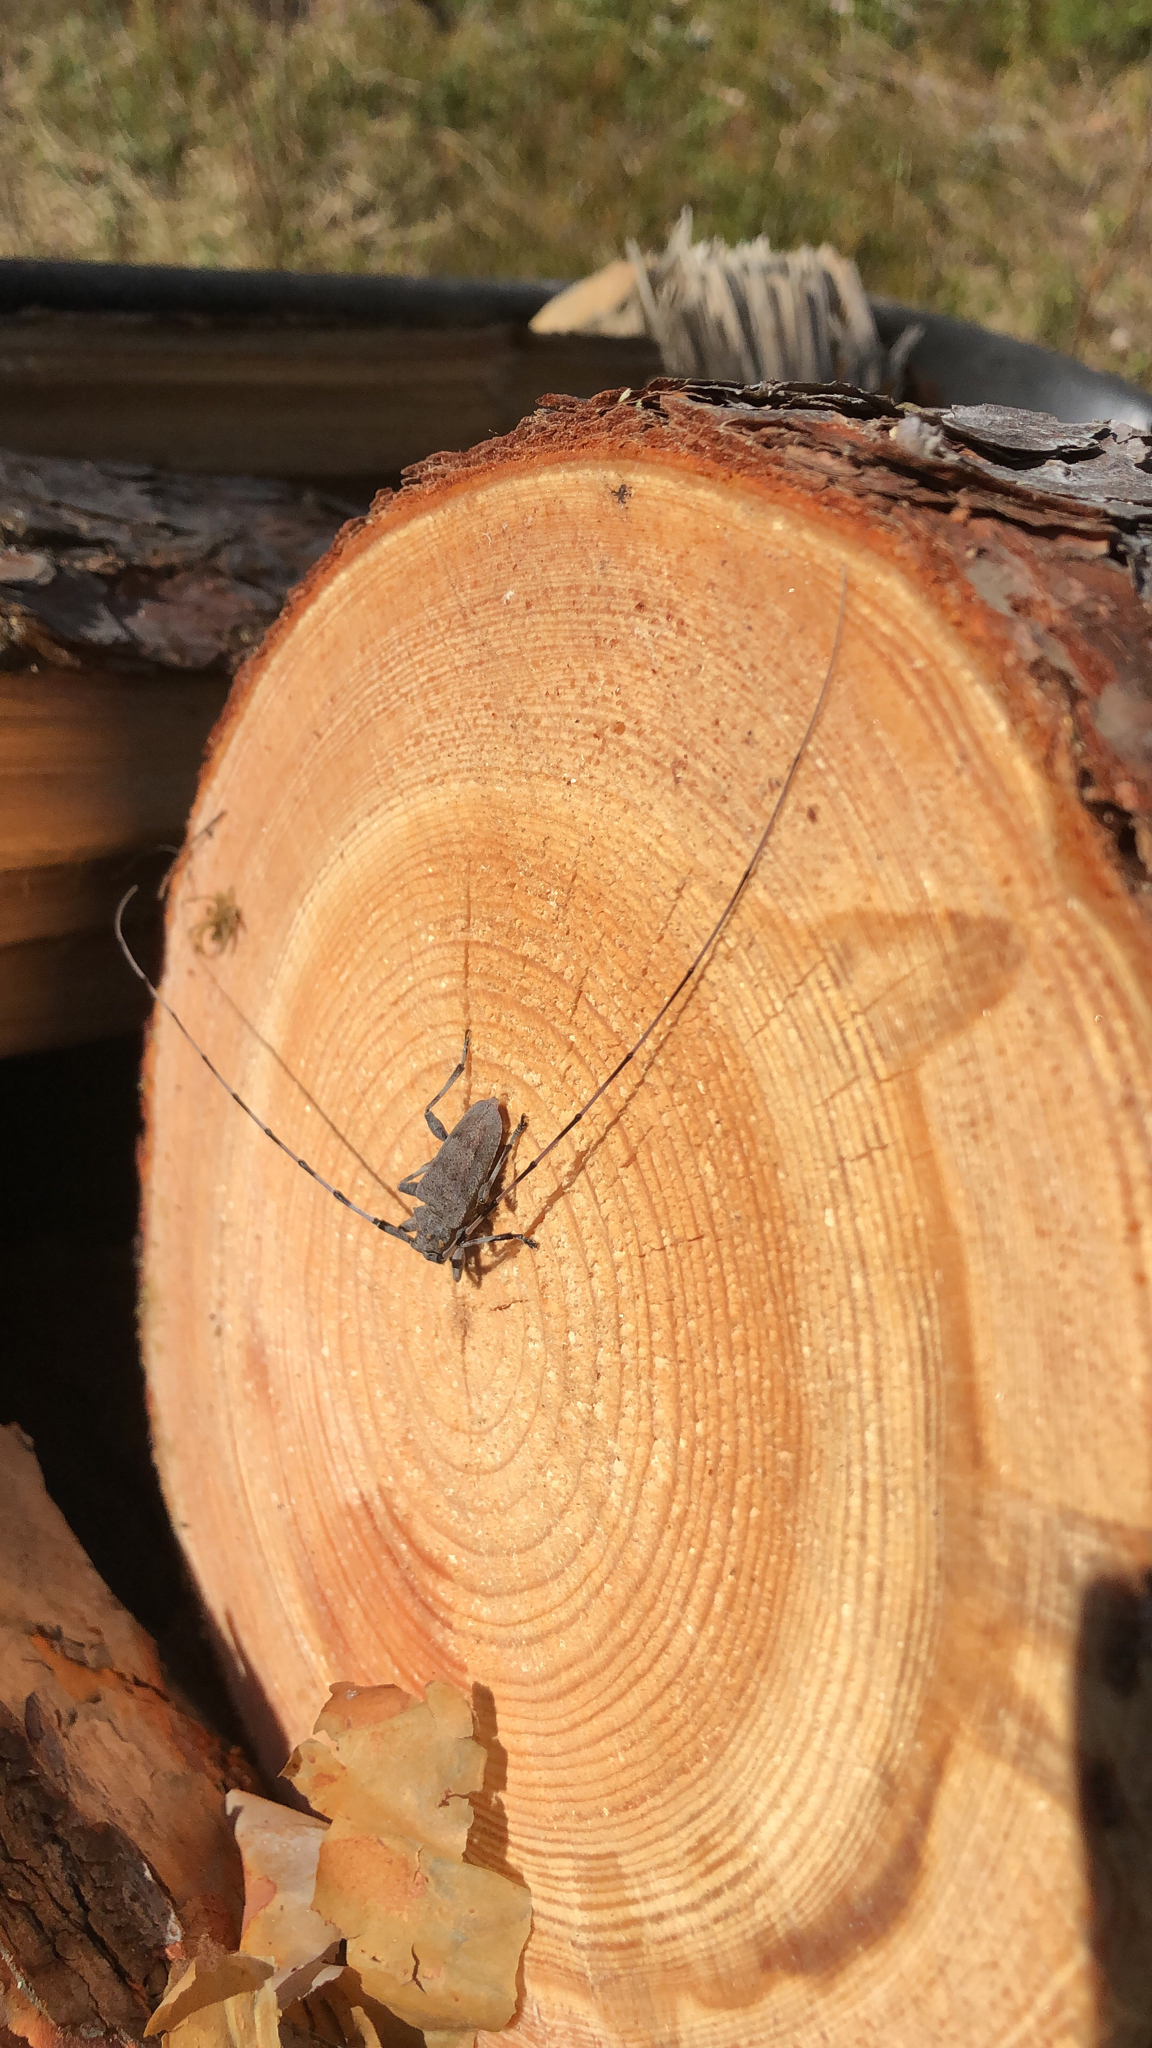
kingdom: Animalia
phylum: Arthropoda
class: Insecta
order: Coleoptera
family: Cerambycidae
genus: Acanthocinus
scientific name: Acanthocinus aedilis
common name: Timberman beetle
